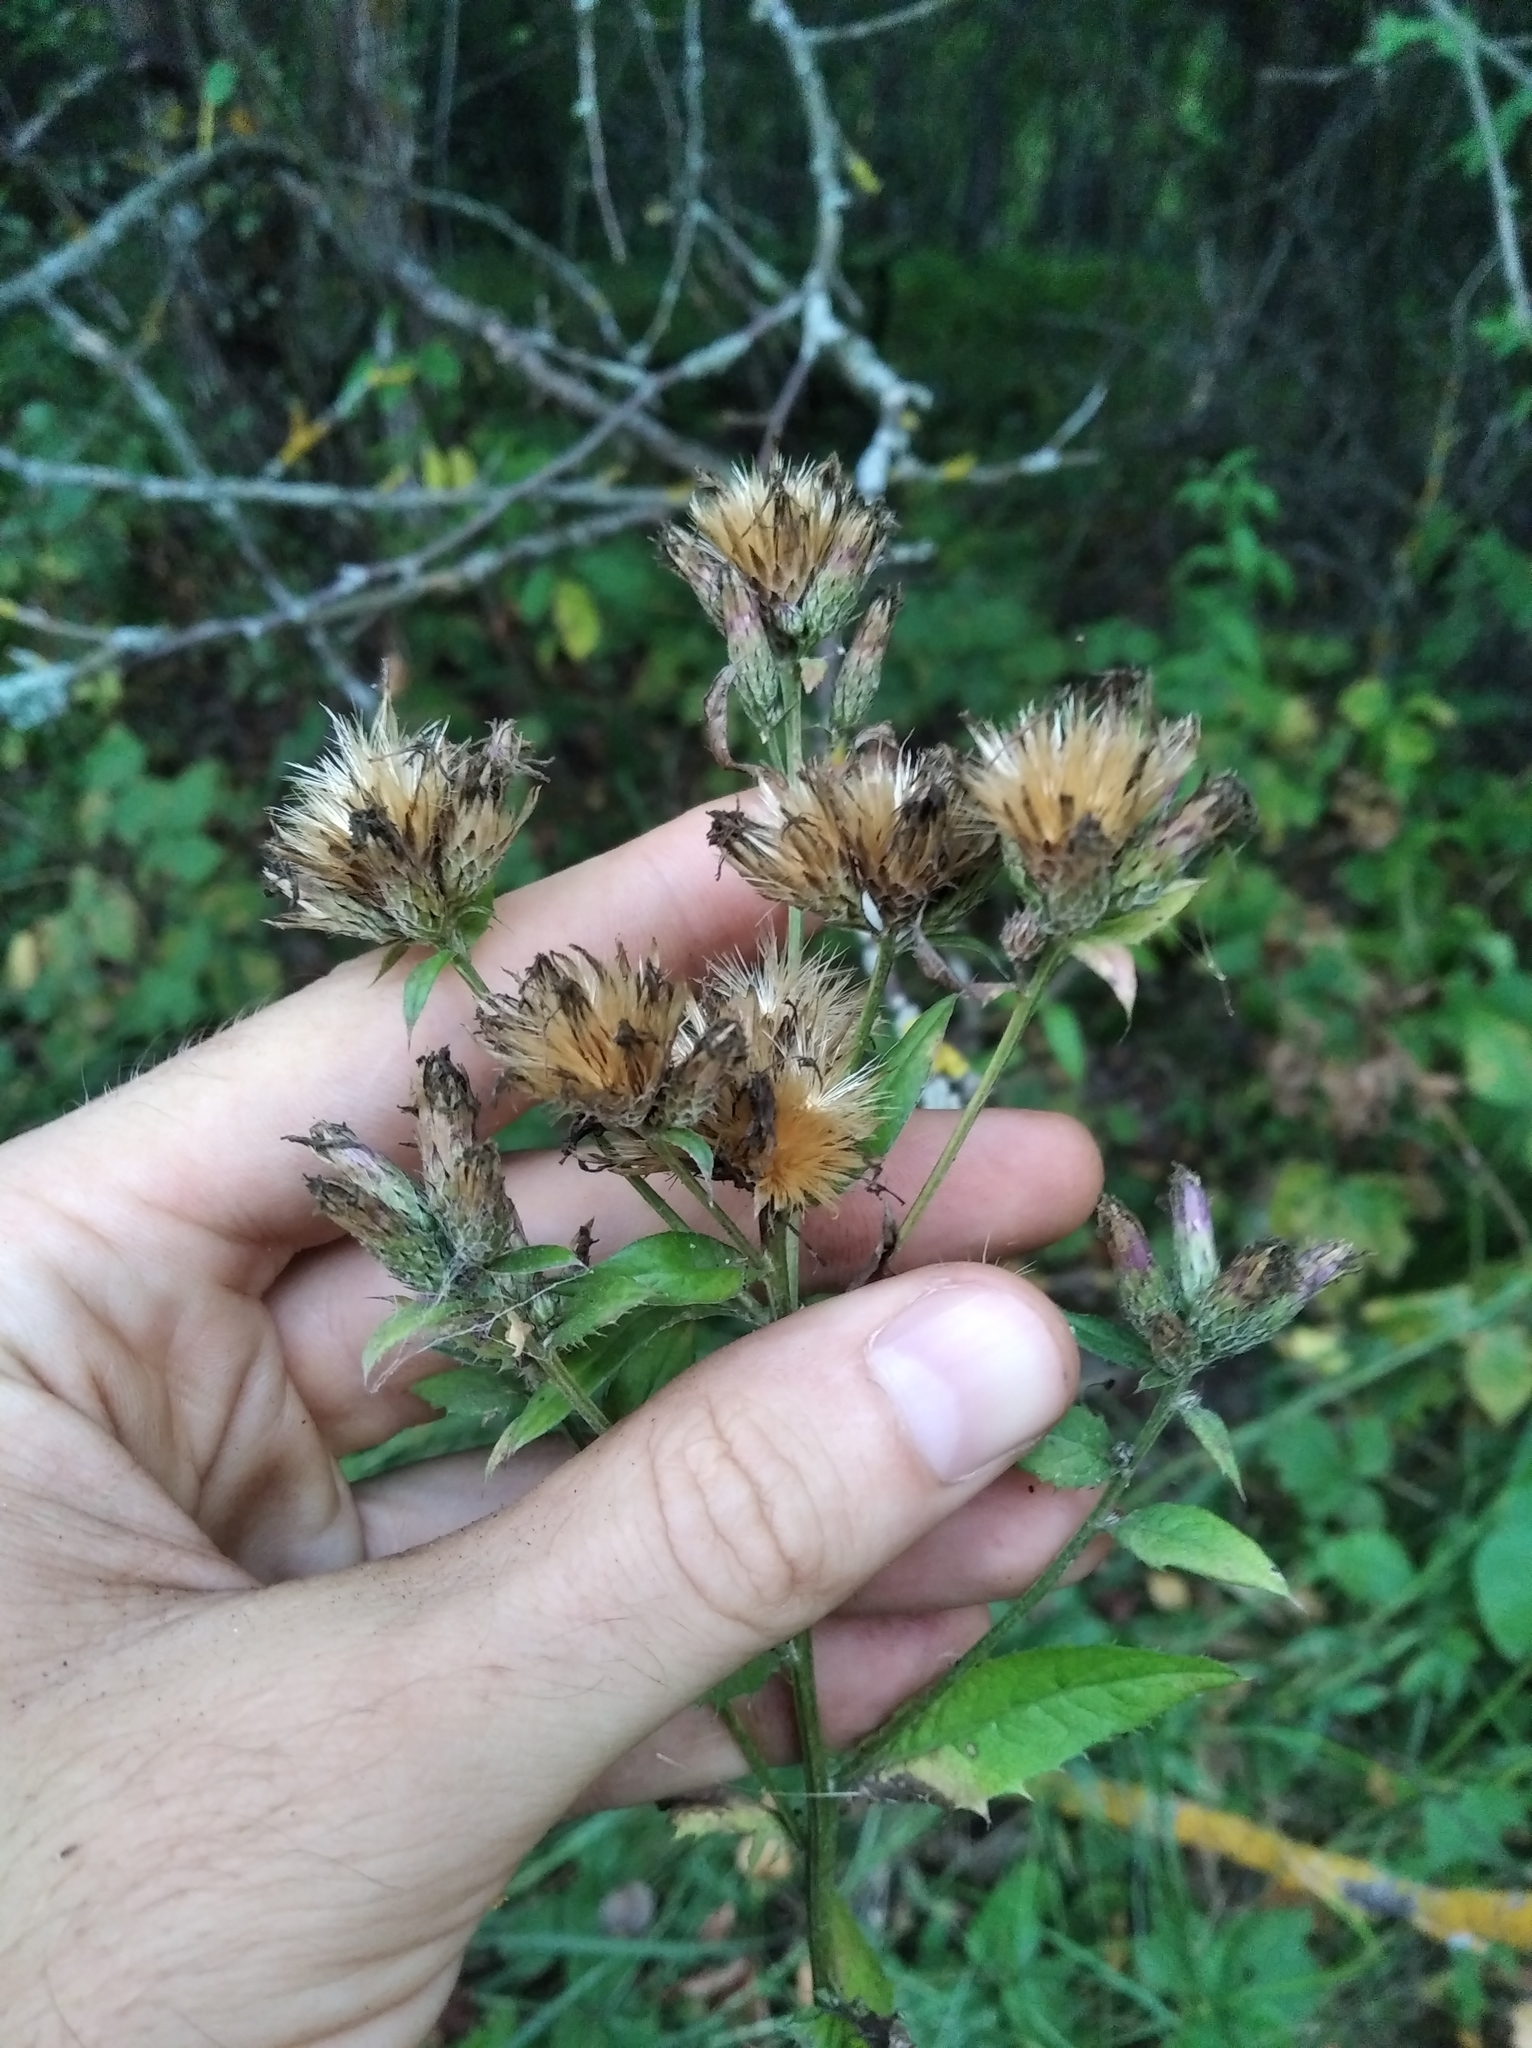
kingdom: Plantae
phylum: Tracheophyta
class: Magnoliopsida
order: Asterales
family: Asteraceae
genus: Serratula
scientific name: Serratula tinctoria
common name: Saw-wort
